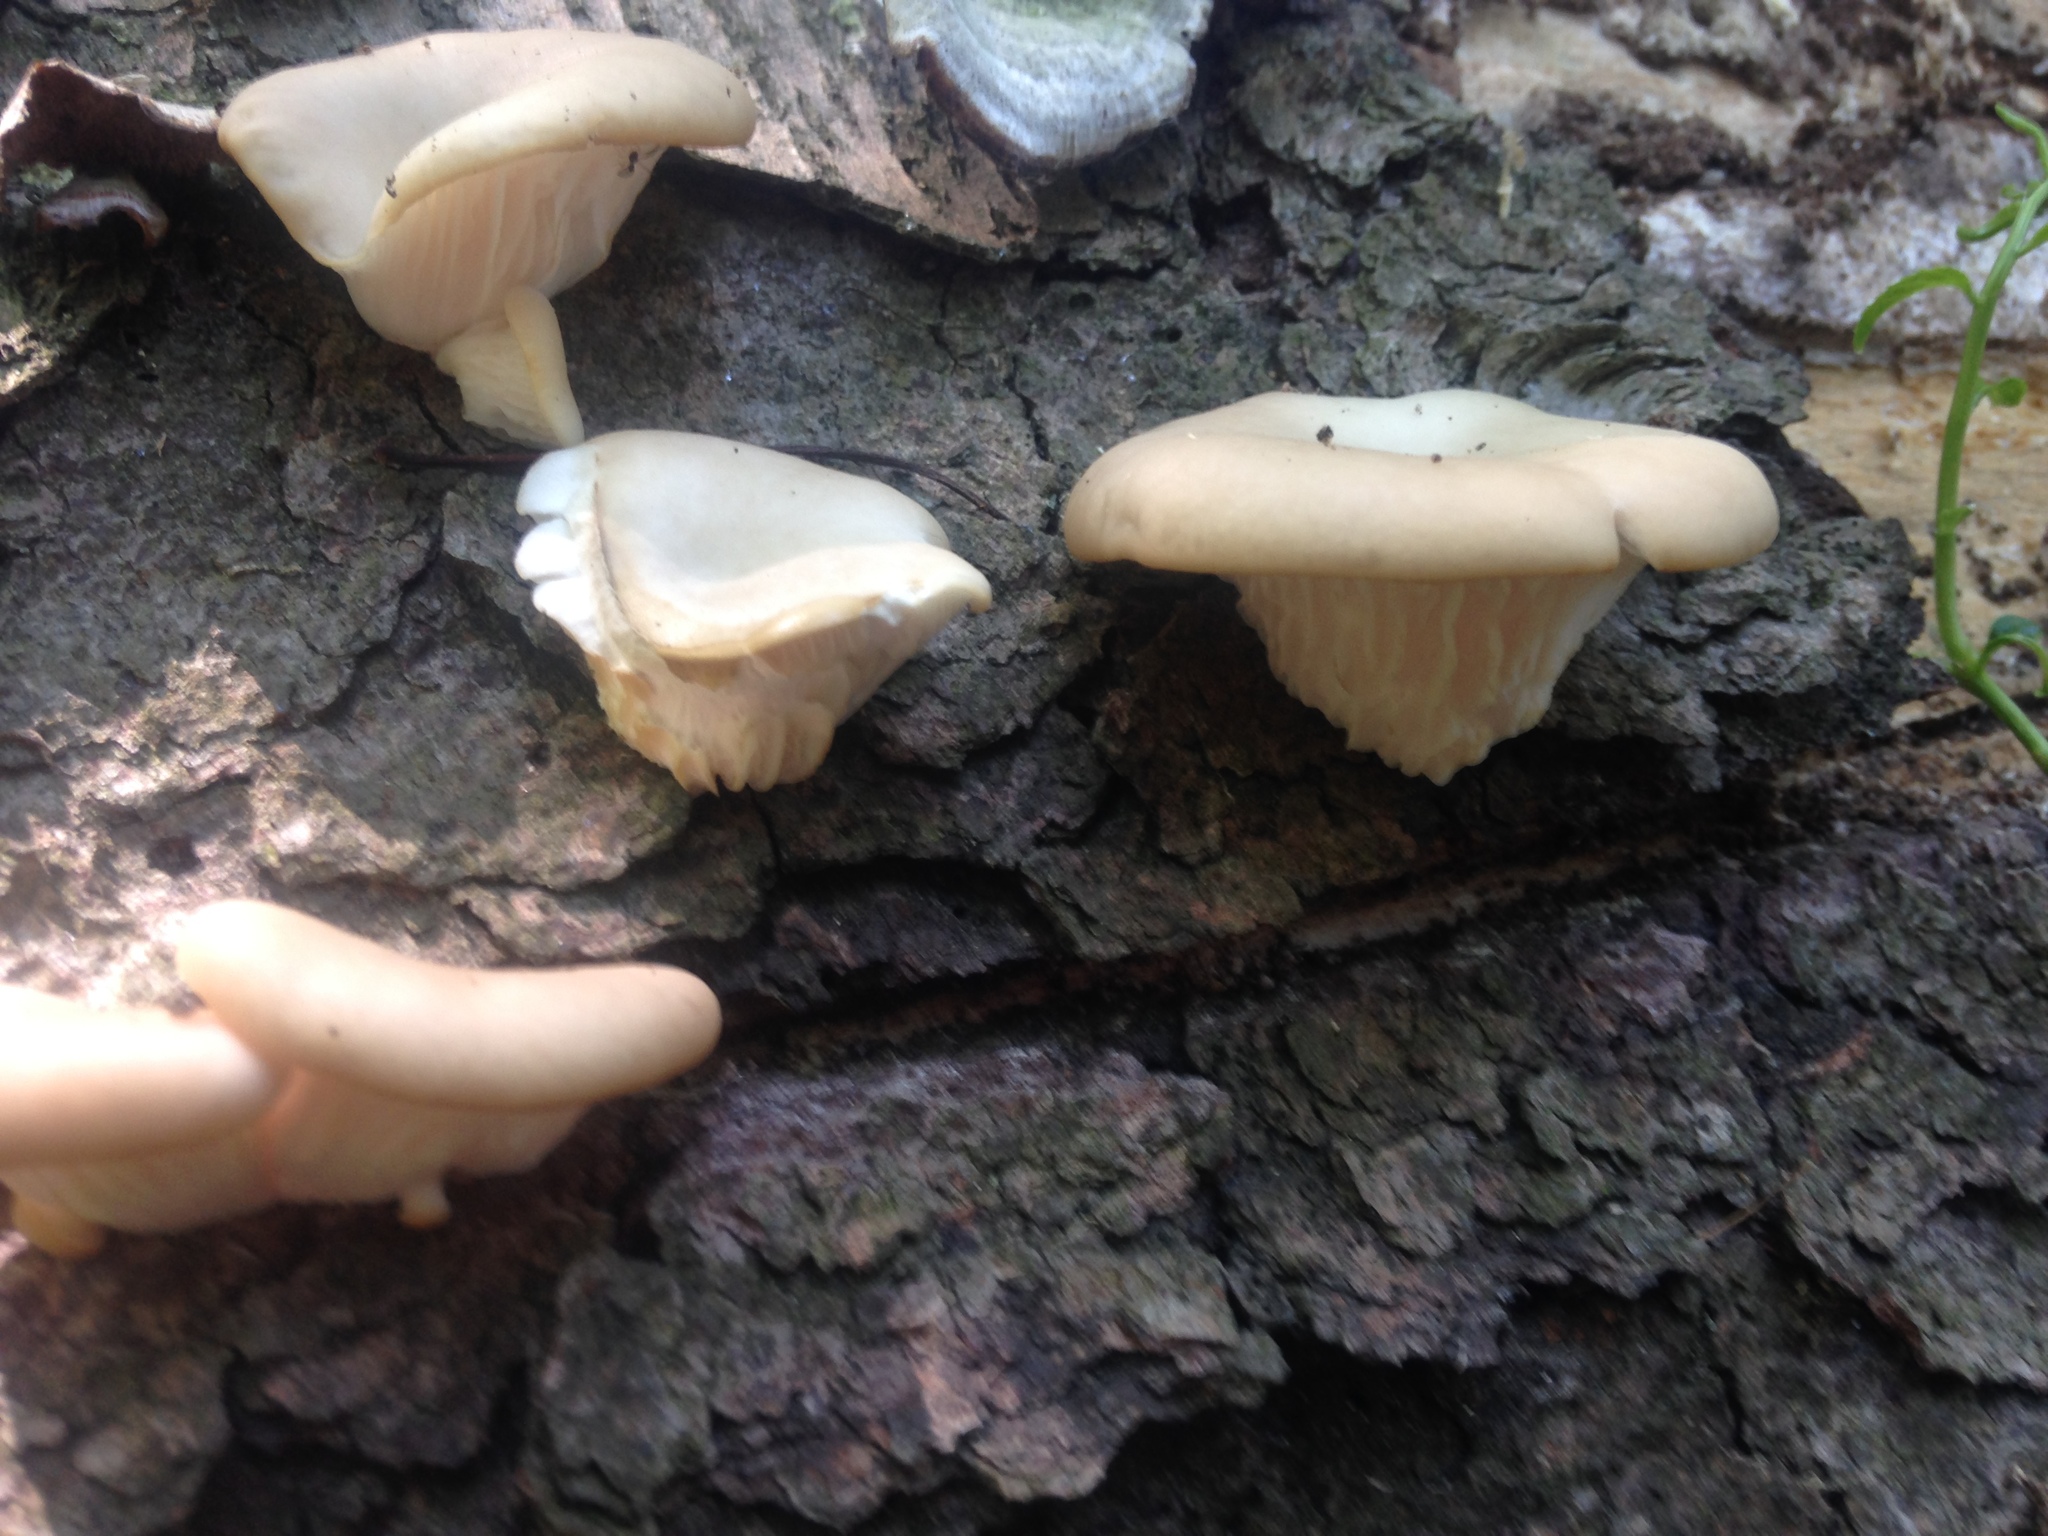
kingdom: Fungi
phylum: Basidiomycota
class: Agaricomycetes
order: Agaricales
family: Pleurotaceae
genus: Pleurotus
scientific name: Pleurotus pulmonarius
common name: Pale oyster
